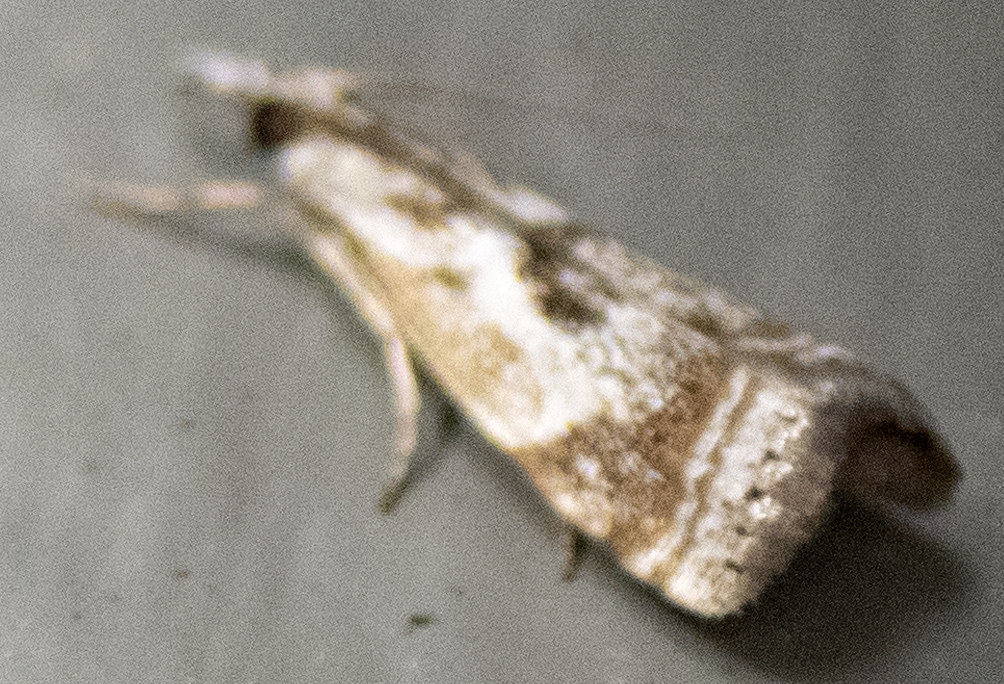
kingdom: Animalia
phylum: Arthropoda
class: Insecta
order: Lepidoptera
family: Crambidae
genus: Microcrambus
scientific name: Microcrambus elegans
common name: Elegant grass-veneer
